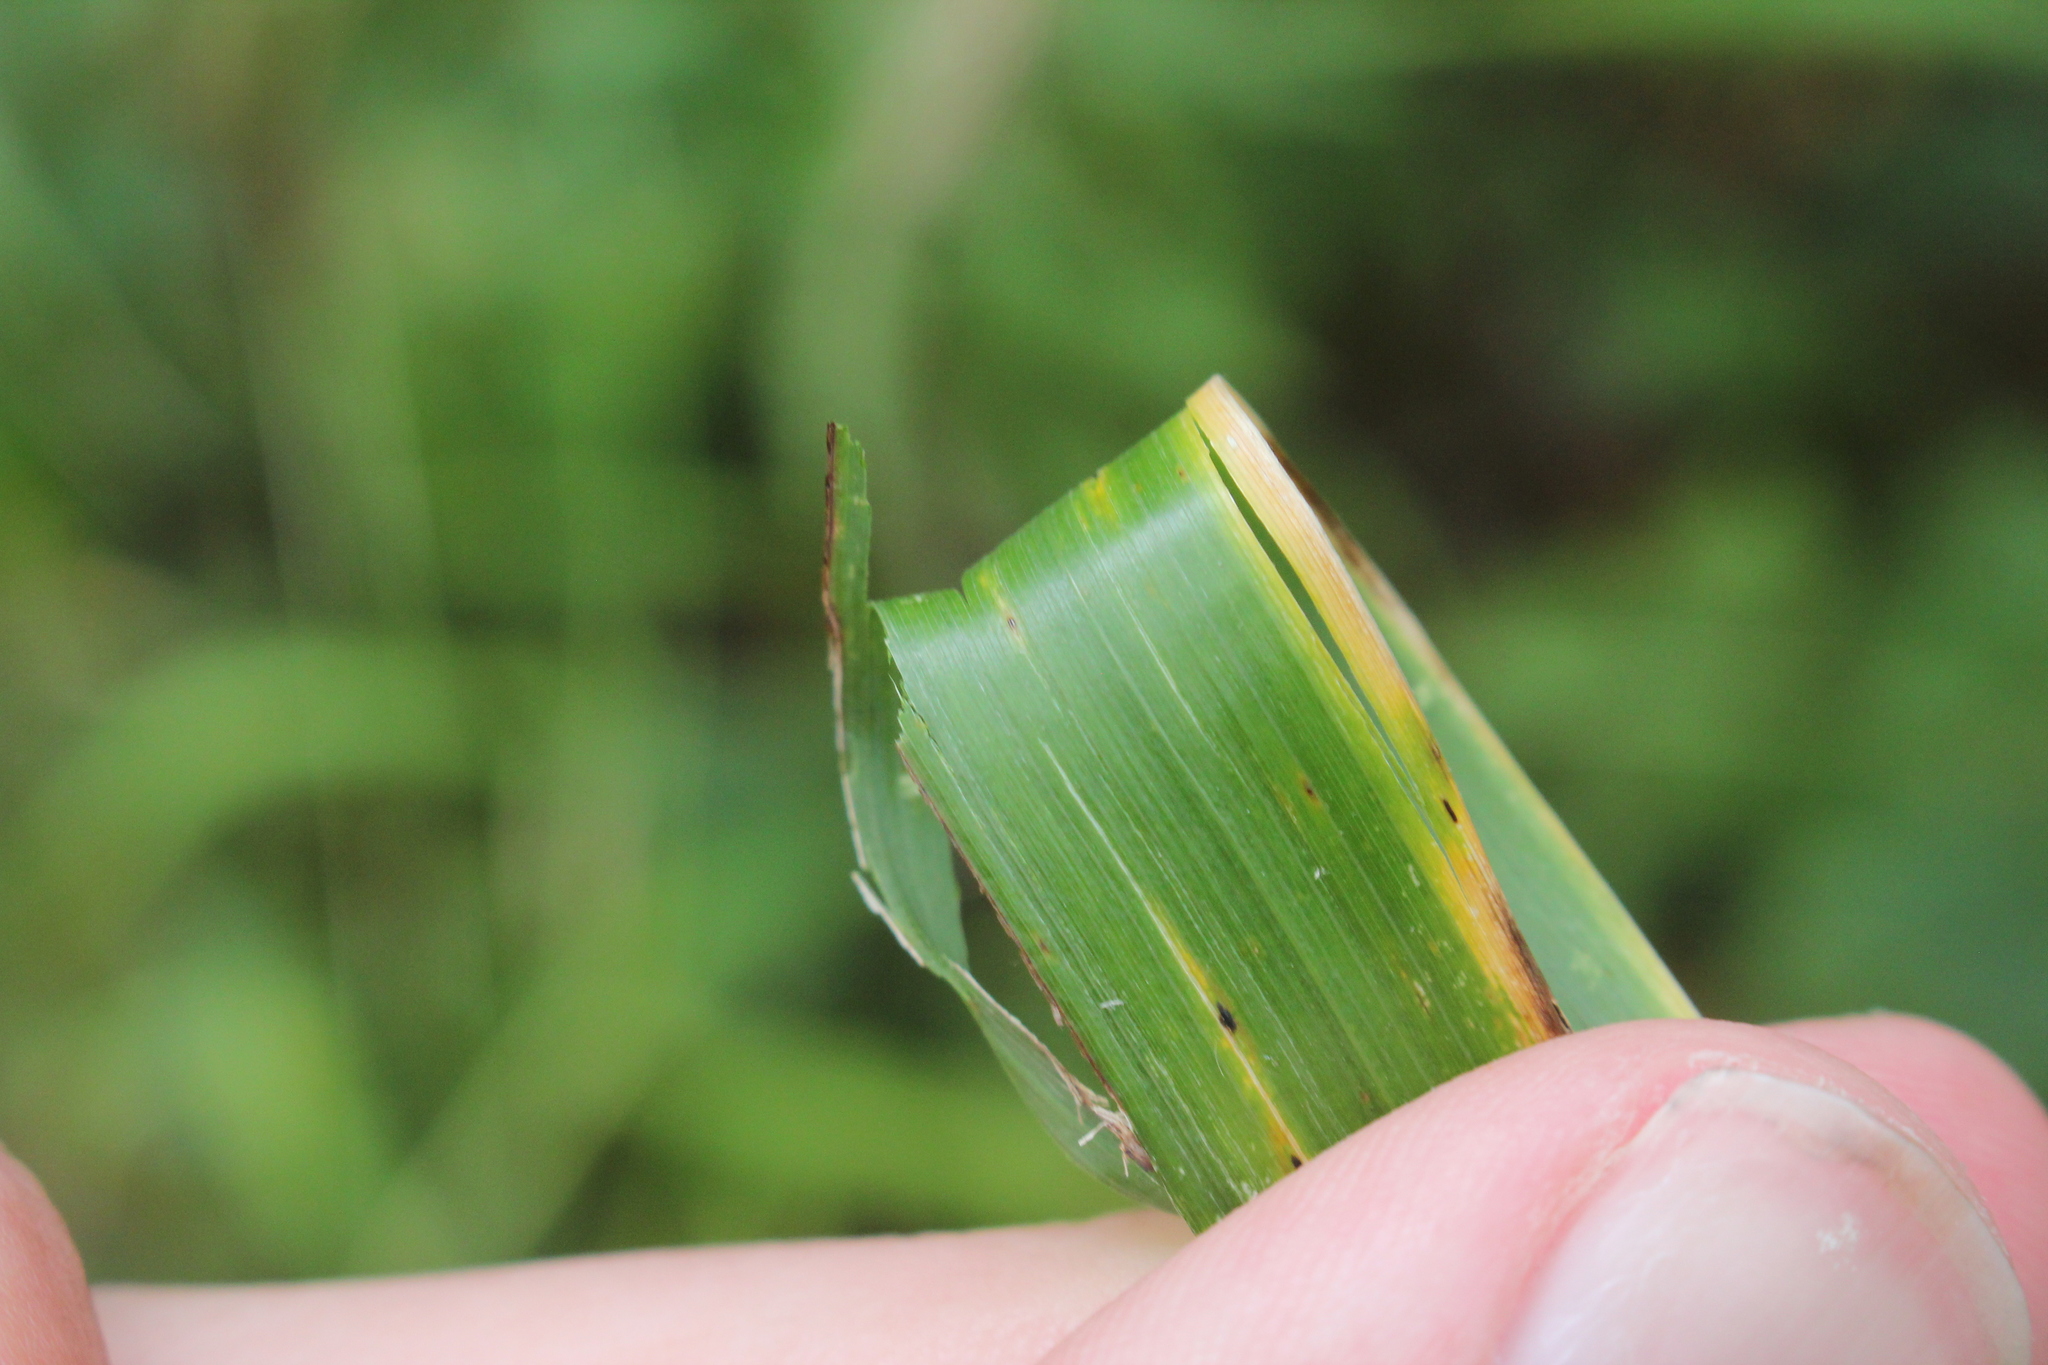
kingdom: Plantae
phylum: Tracheophyta
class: Liliopsida
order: Poales
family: Poaceae
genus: Elymus
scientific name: Elymus riparius
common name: Eastern riverbank wild rye
